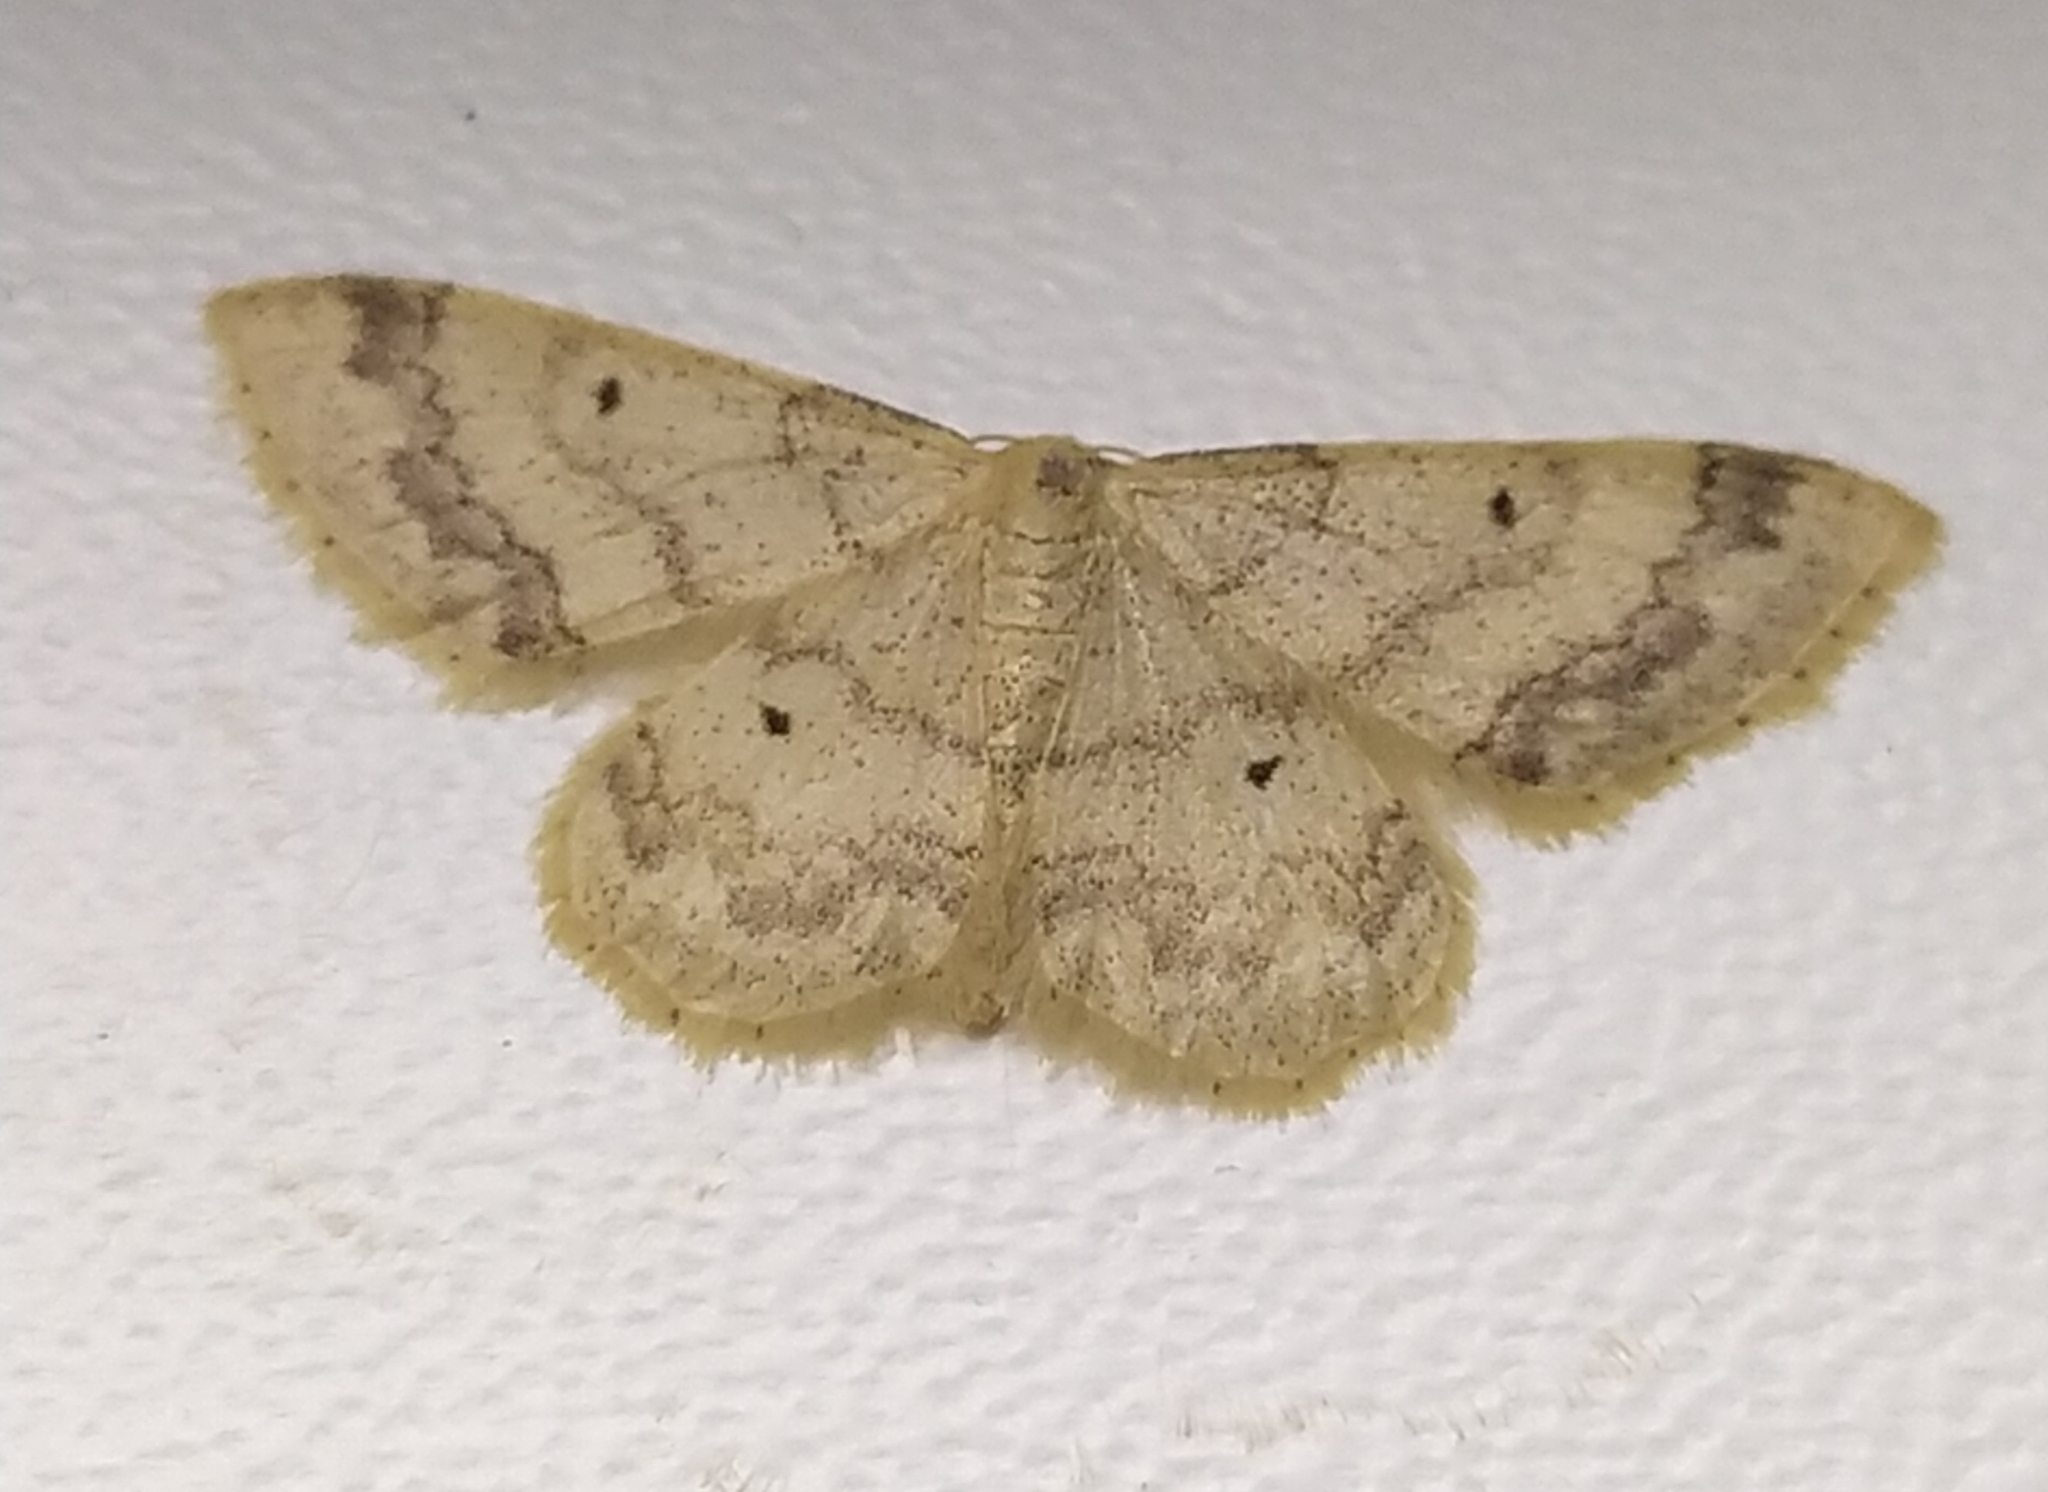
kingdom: Animalia
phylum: Arthropoda
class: Insecta
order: Lepidoptera
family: Geometridae
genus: Idaea
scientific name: Idaea biselata
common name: Small fan-footed wave
